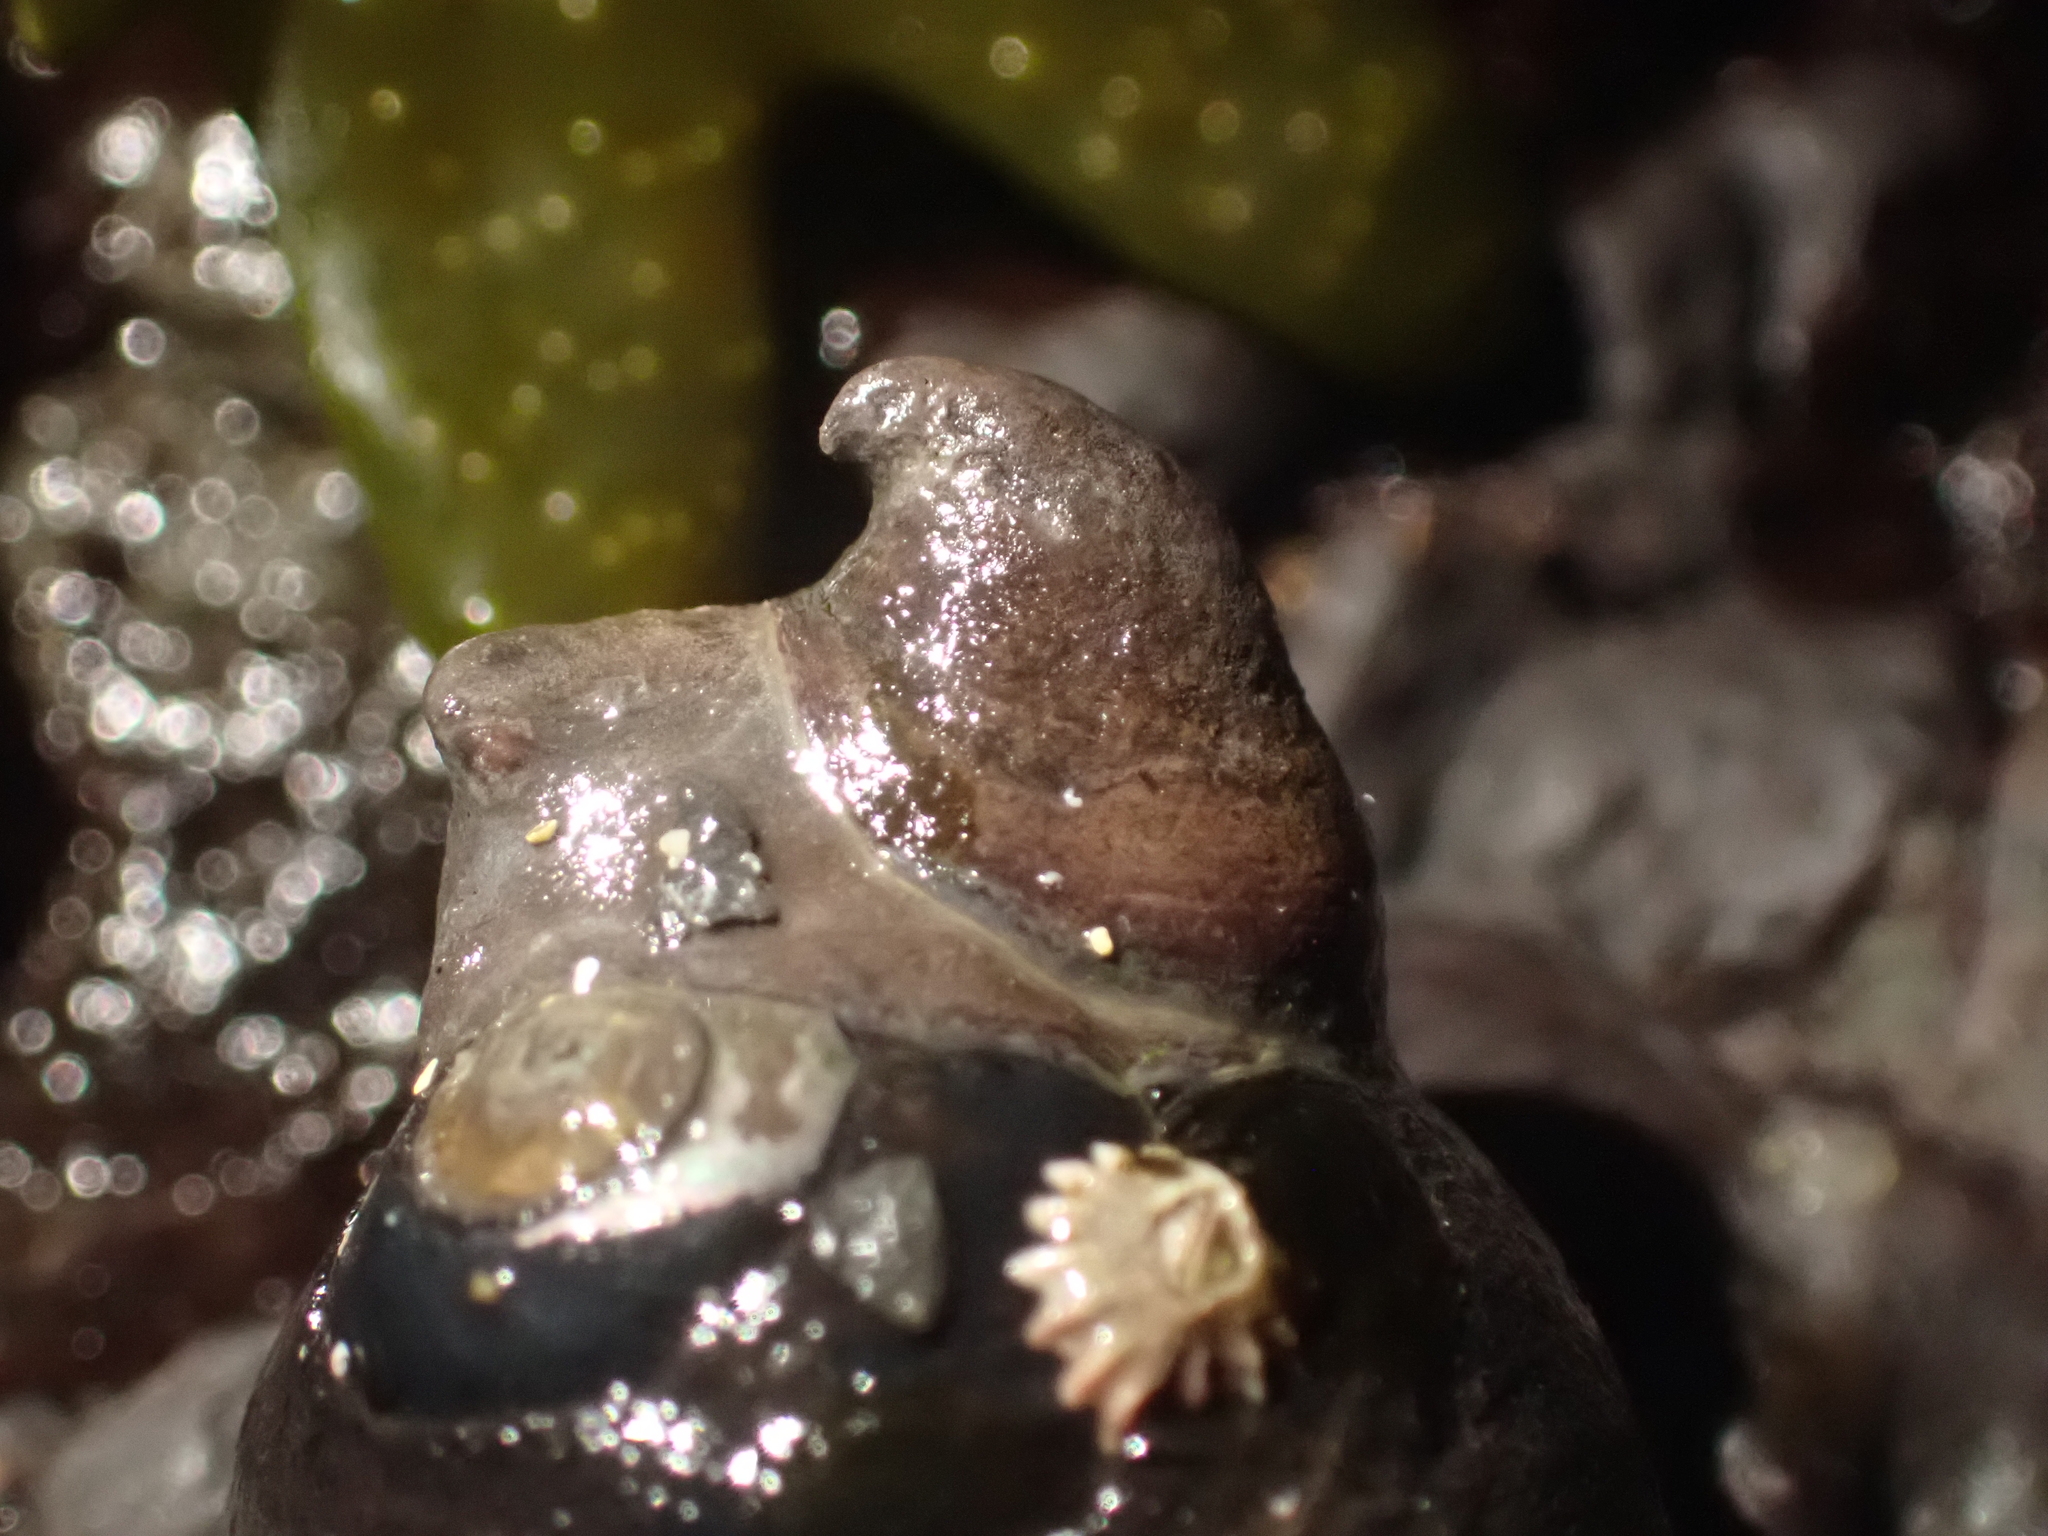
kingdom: Animalia
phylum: Mollusca
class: Gastropoda
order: Littorinimorpha
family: Calyptraeidae
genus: Crepidula
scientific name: Crepidula adunca
